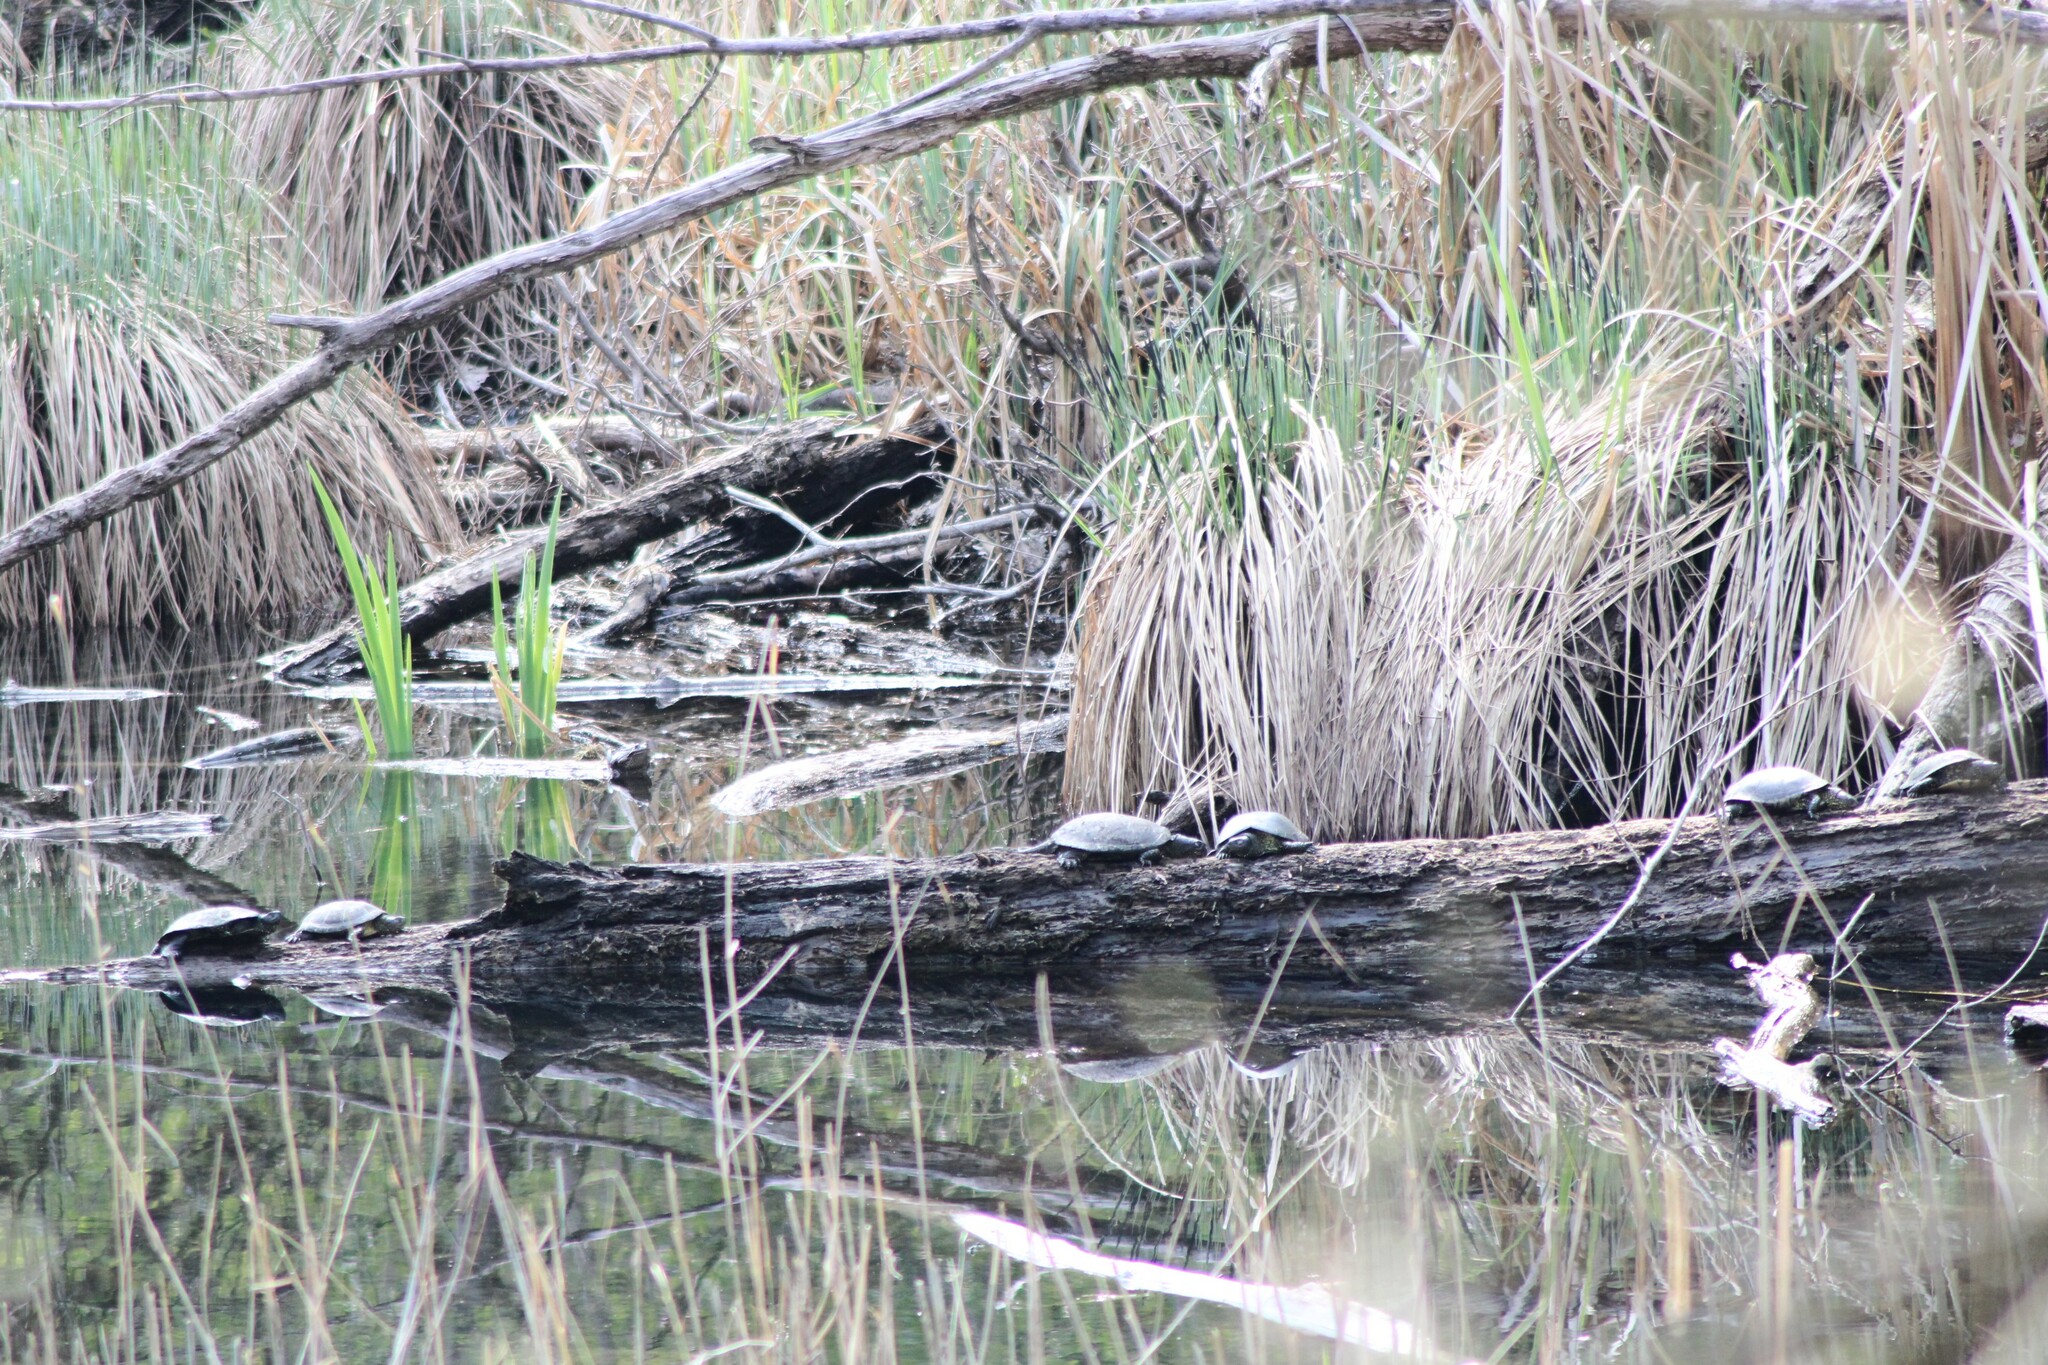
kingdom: Animalia
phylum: Chordata
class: Testudines
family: Emydidae
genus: Emys
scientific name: Emys orbicularis
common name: European pond turtle
